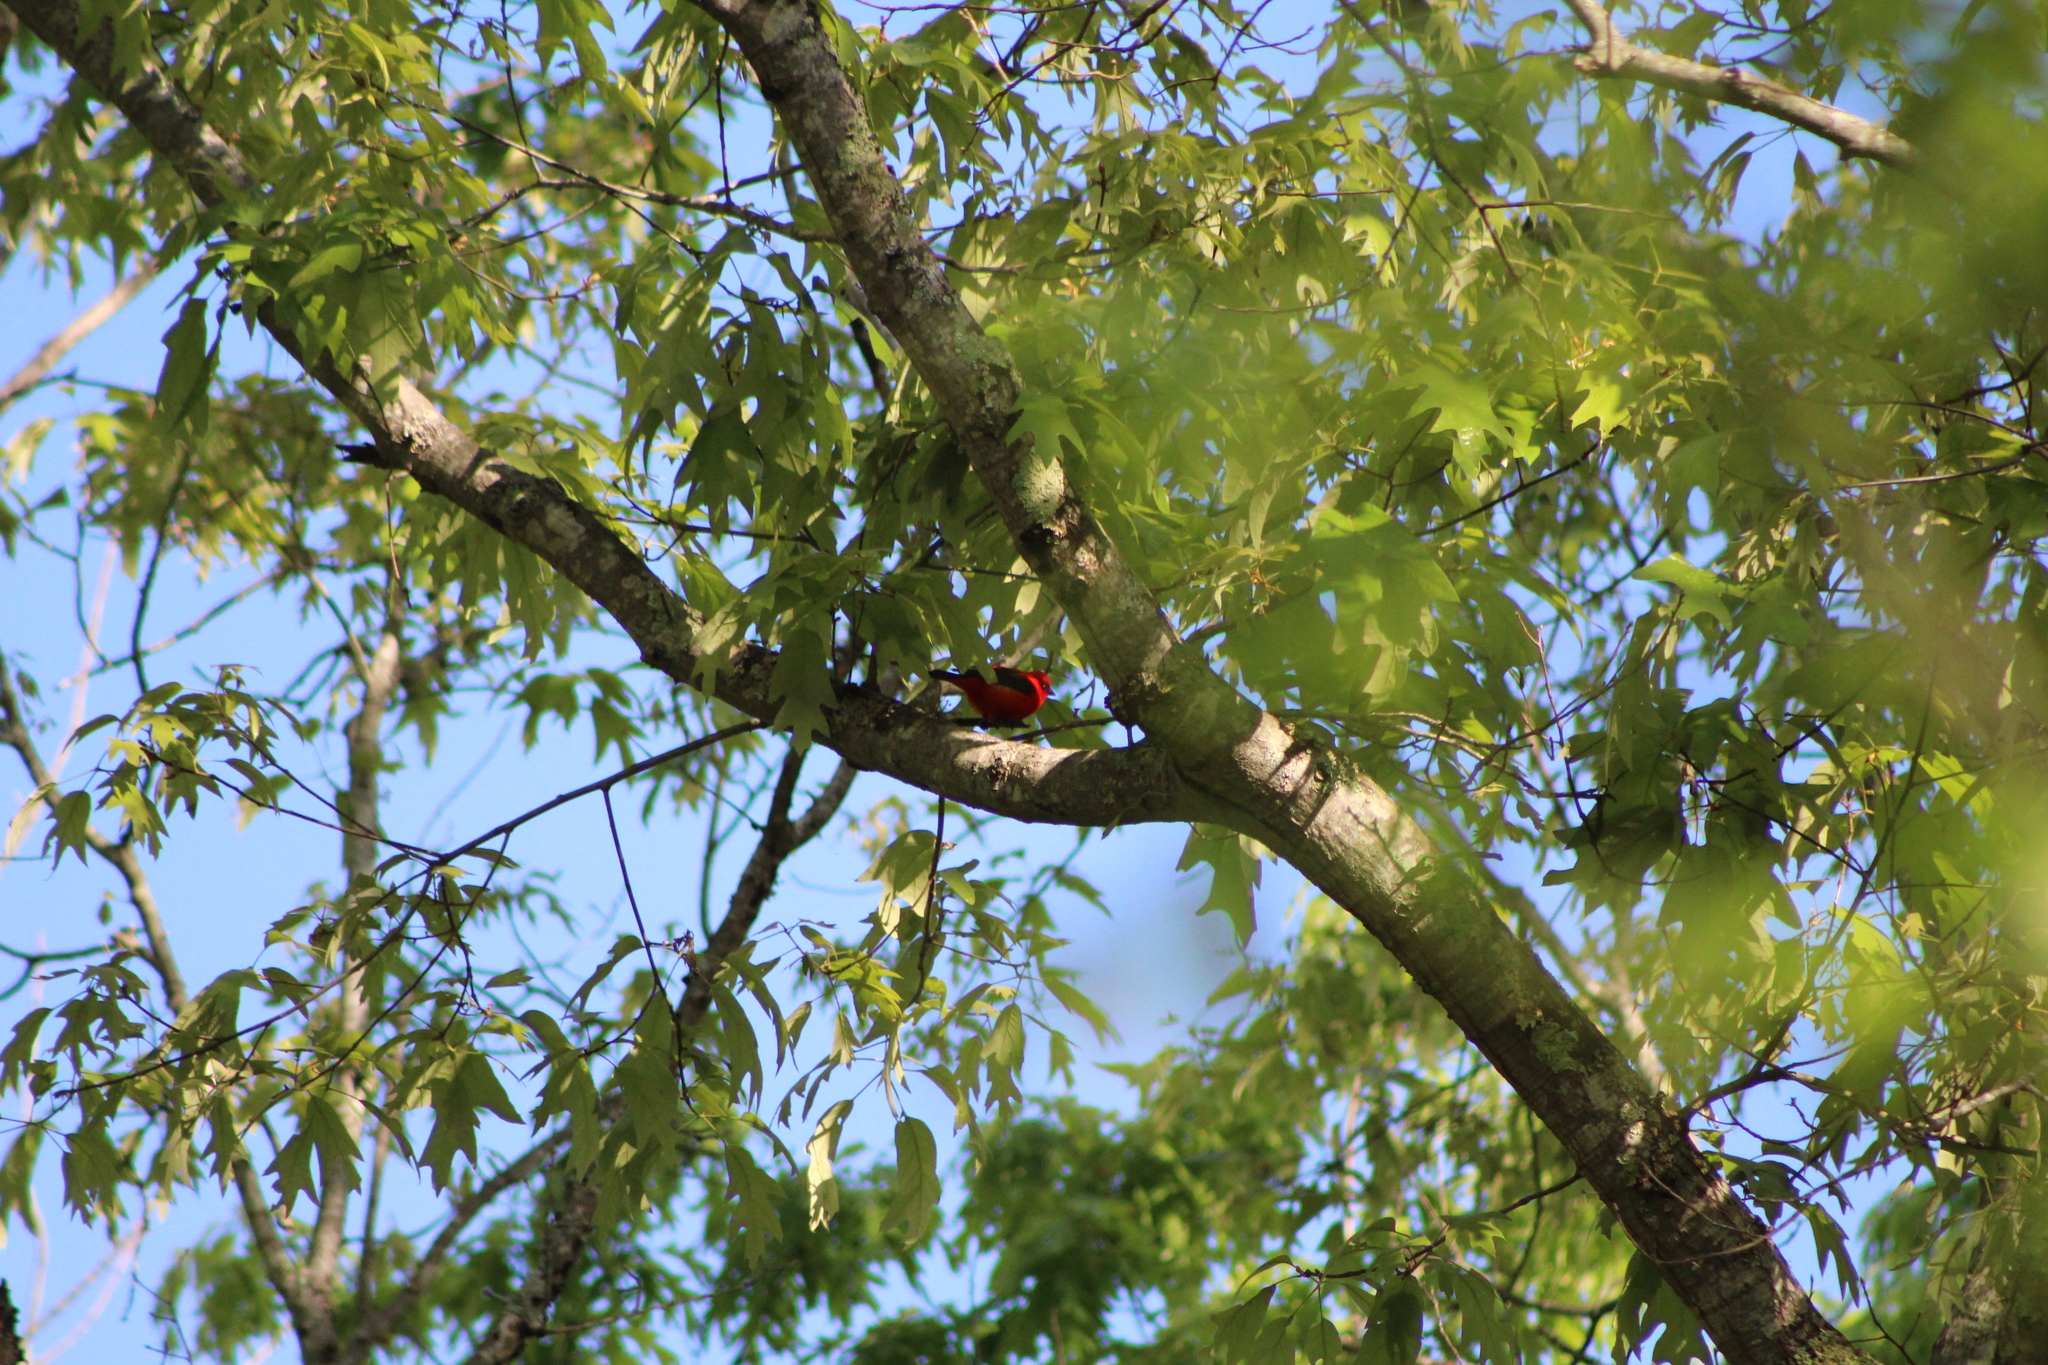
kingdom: Animalia
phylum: Chordata
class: Aves
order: Passeriformes
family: Cardinalidae
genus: Piranga
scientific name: Piranga olivacea
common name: Scarlet tanager
